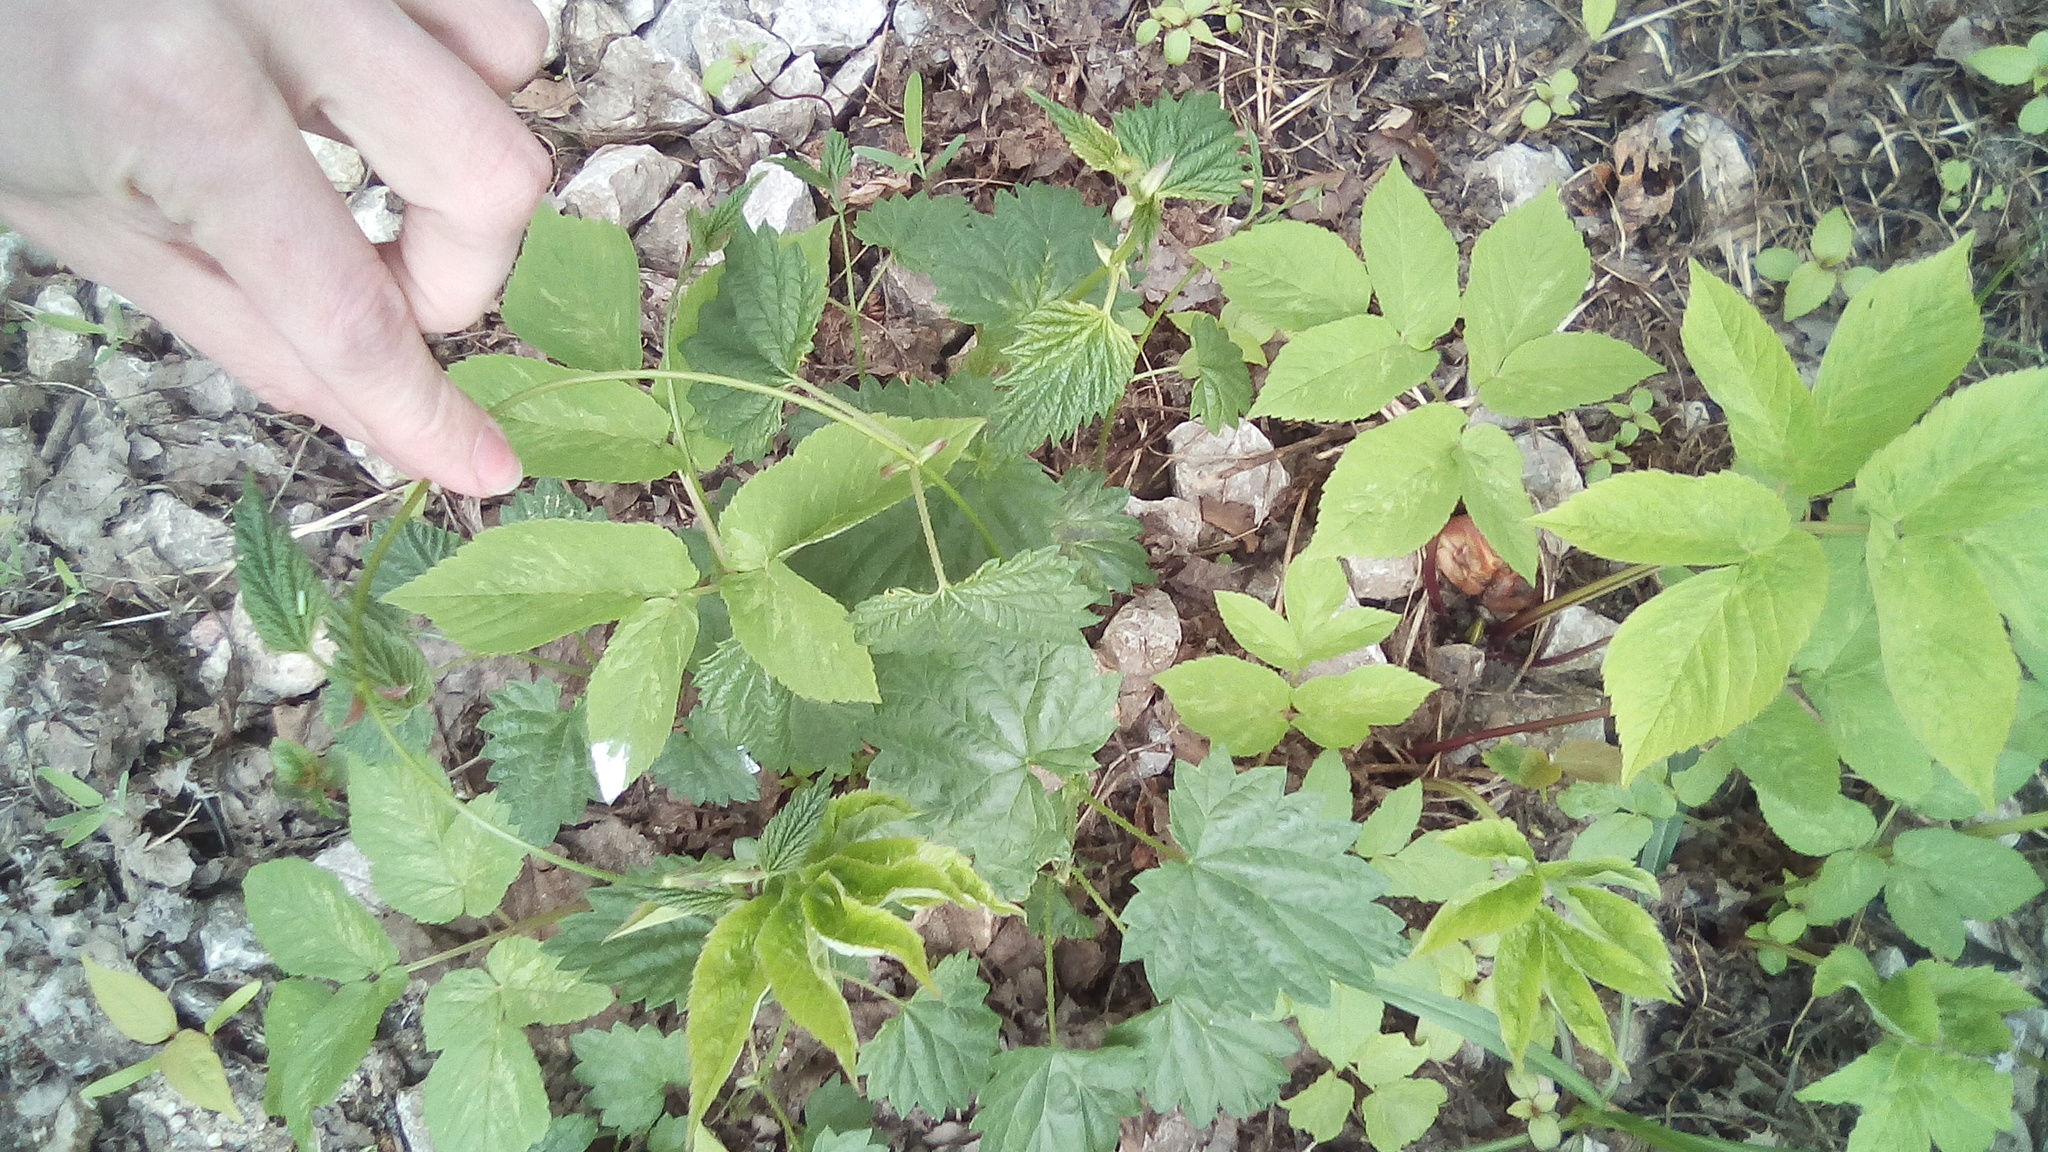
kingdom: Plantae
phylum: Tracheophyta
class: Magnoliopsida
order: Apiales
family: Apiaceae
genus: Aegopodium
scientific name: Aegopodium podagraria
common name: Ground-elder
